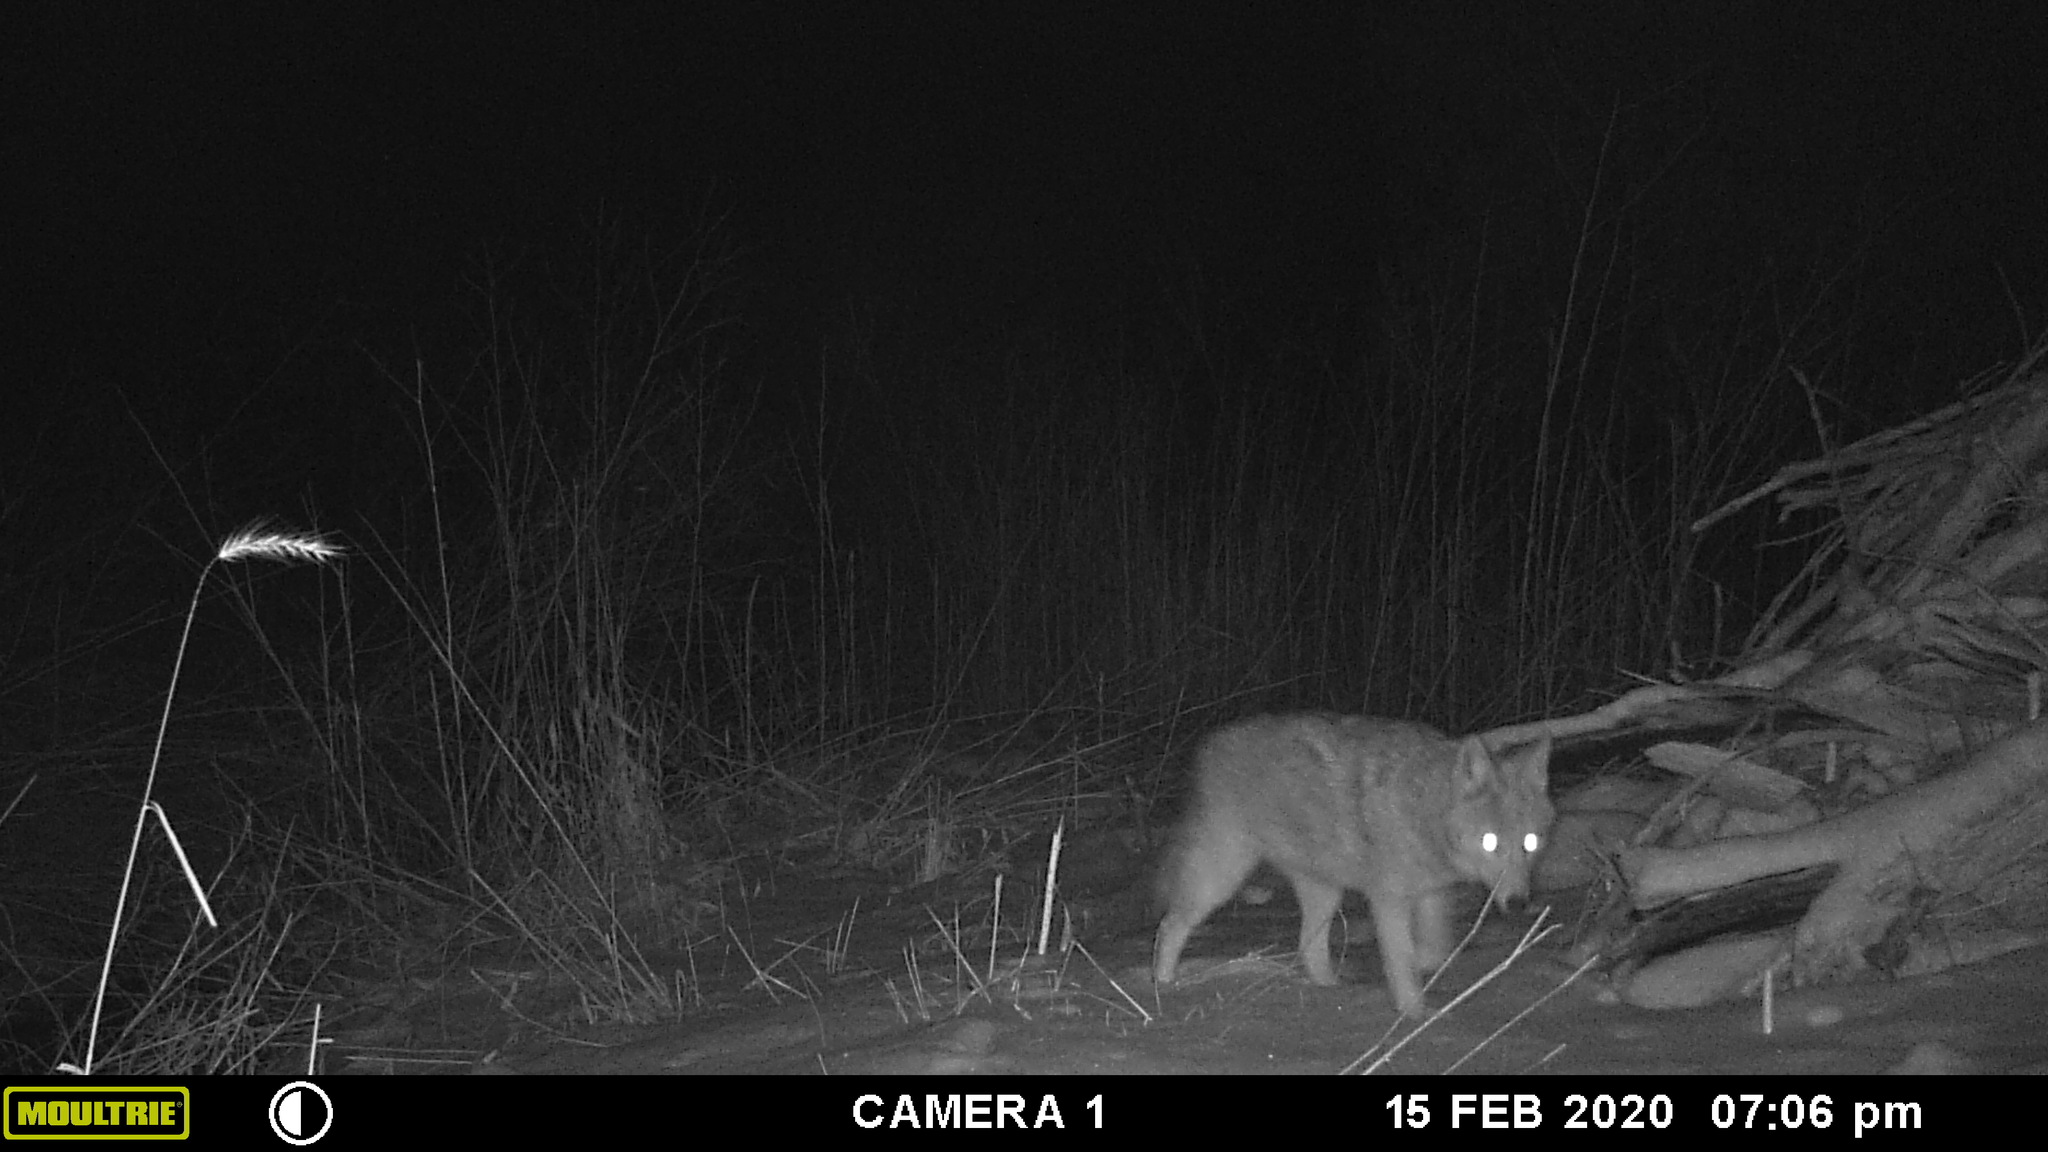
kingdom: Animalia
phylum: Chordata
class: Mammalia
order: Carnivora
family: Canidae
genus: Canis
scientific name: Canis latrans
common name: Coyote
